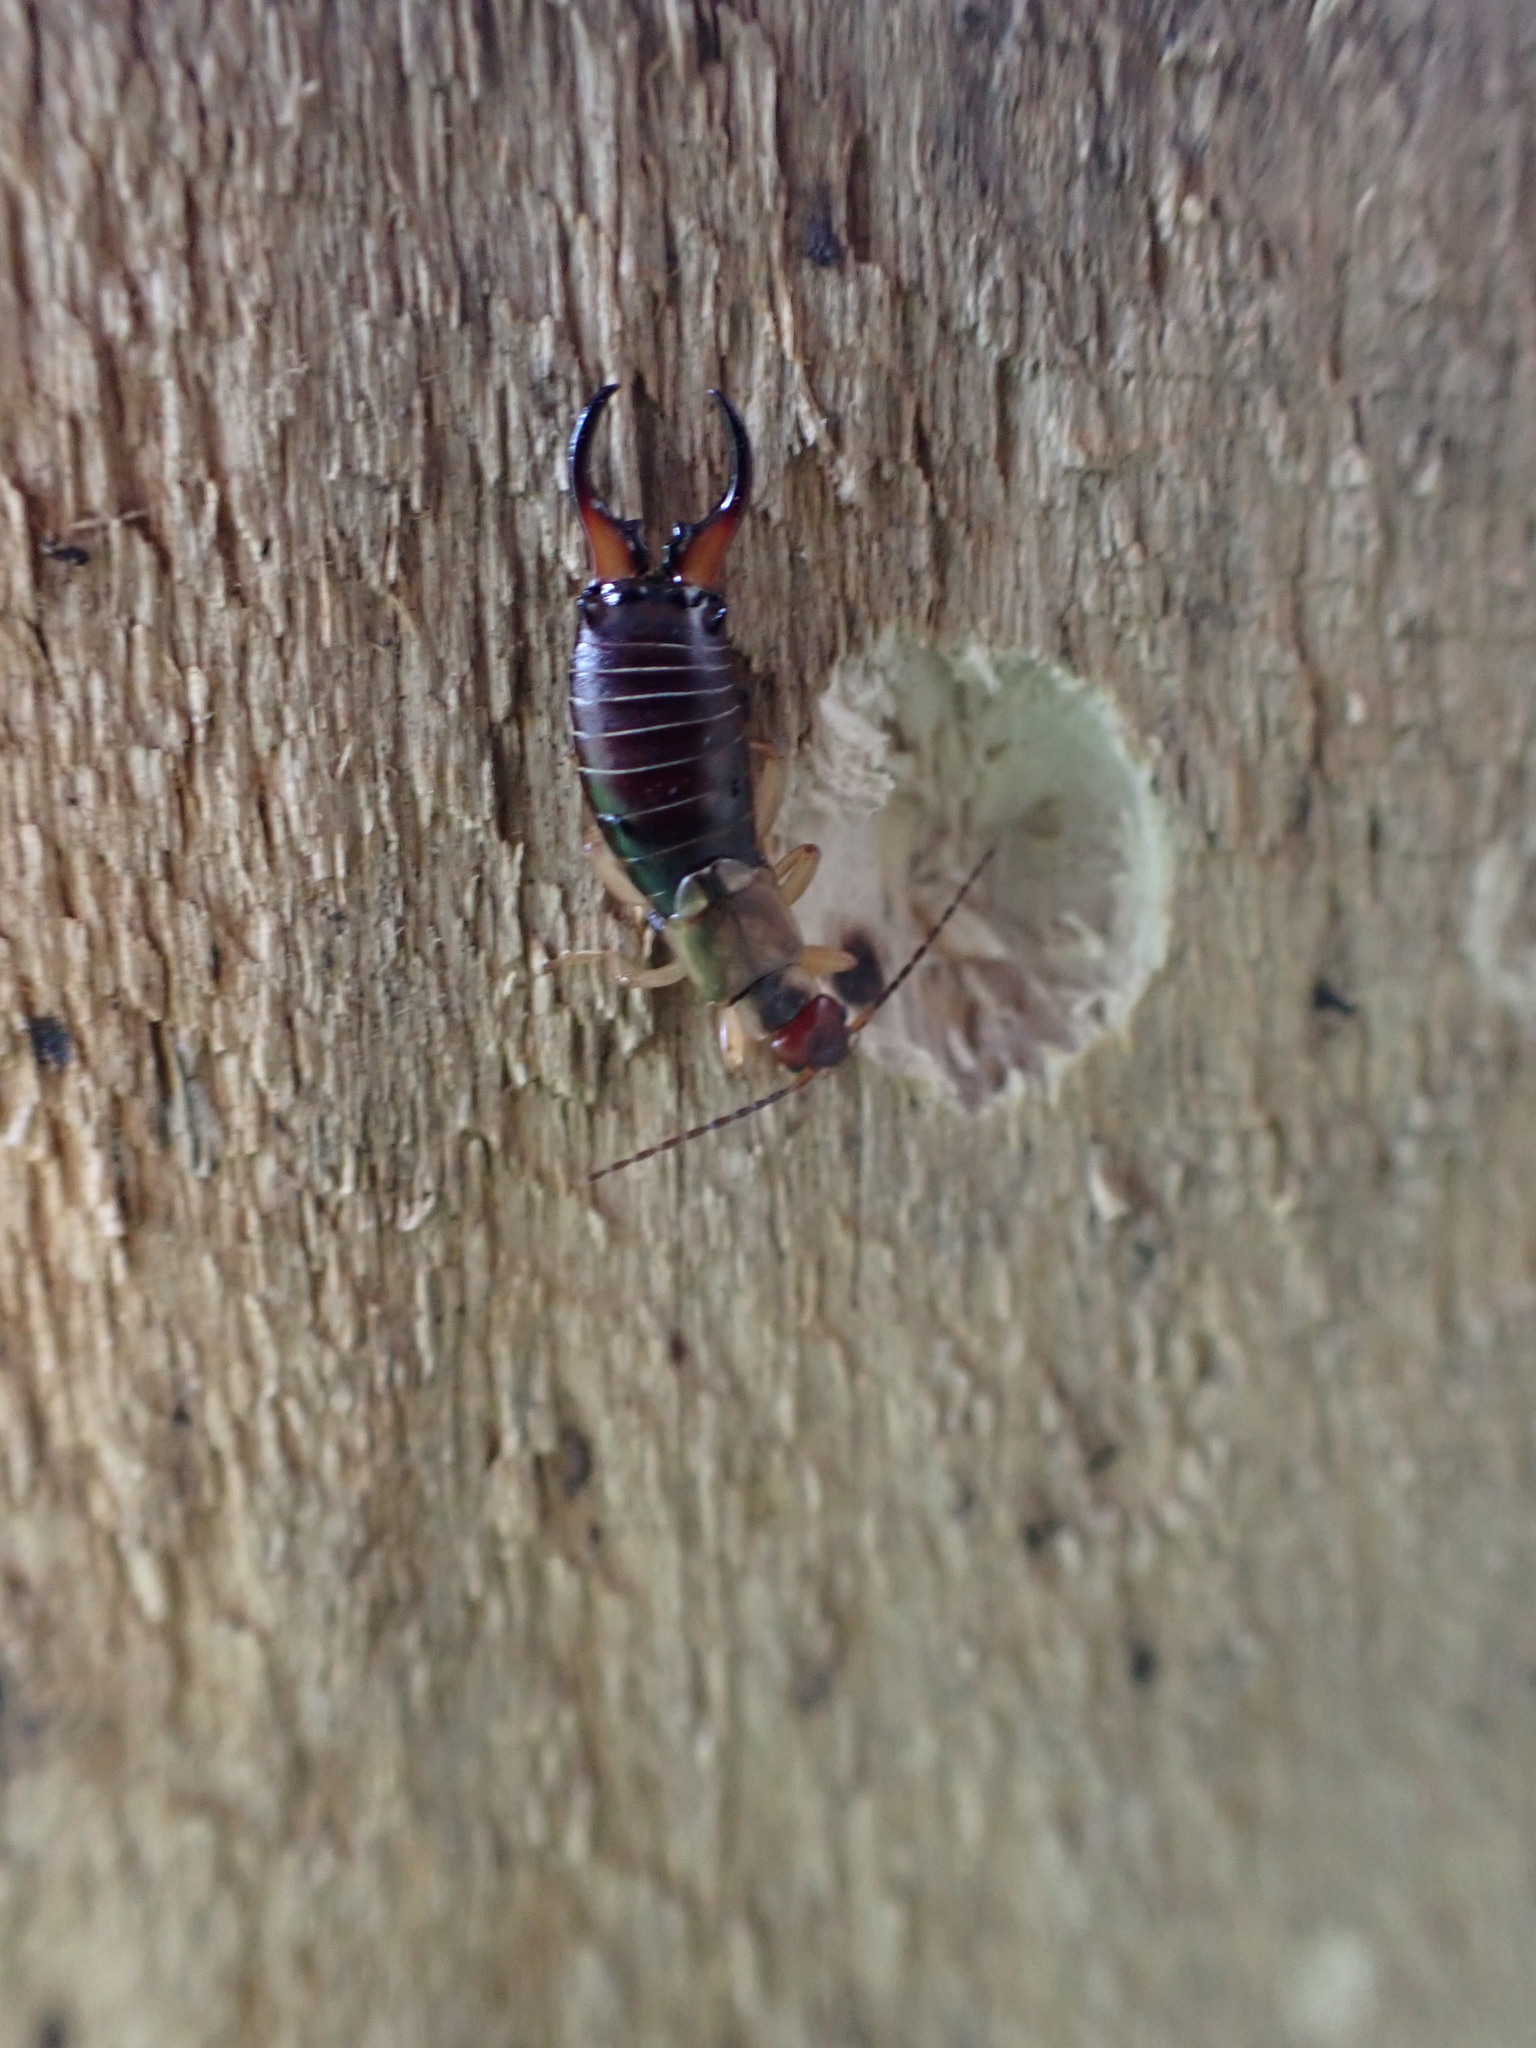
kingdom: Animalia
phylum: Arthropoda
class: Insecta
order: Dermaptera
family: Forficulidae
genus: Forficula
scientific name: Forficula
